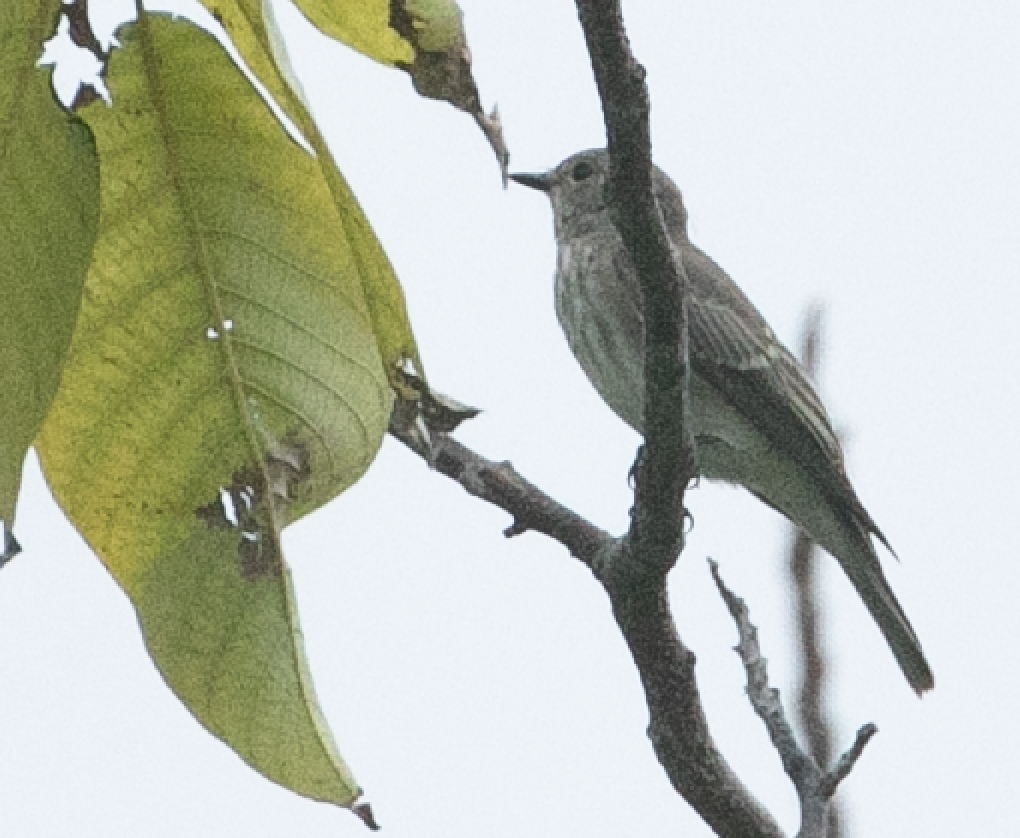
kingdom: Animalia
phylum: Chordata
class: Aves
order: Passeriformes
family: Muscicapidae
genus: Muscicapa
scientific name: Muscicapa striata
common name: Spotted flycatcher
